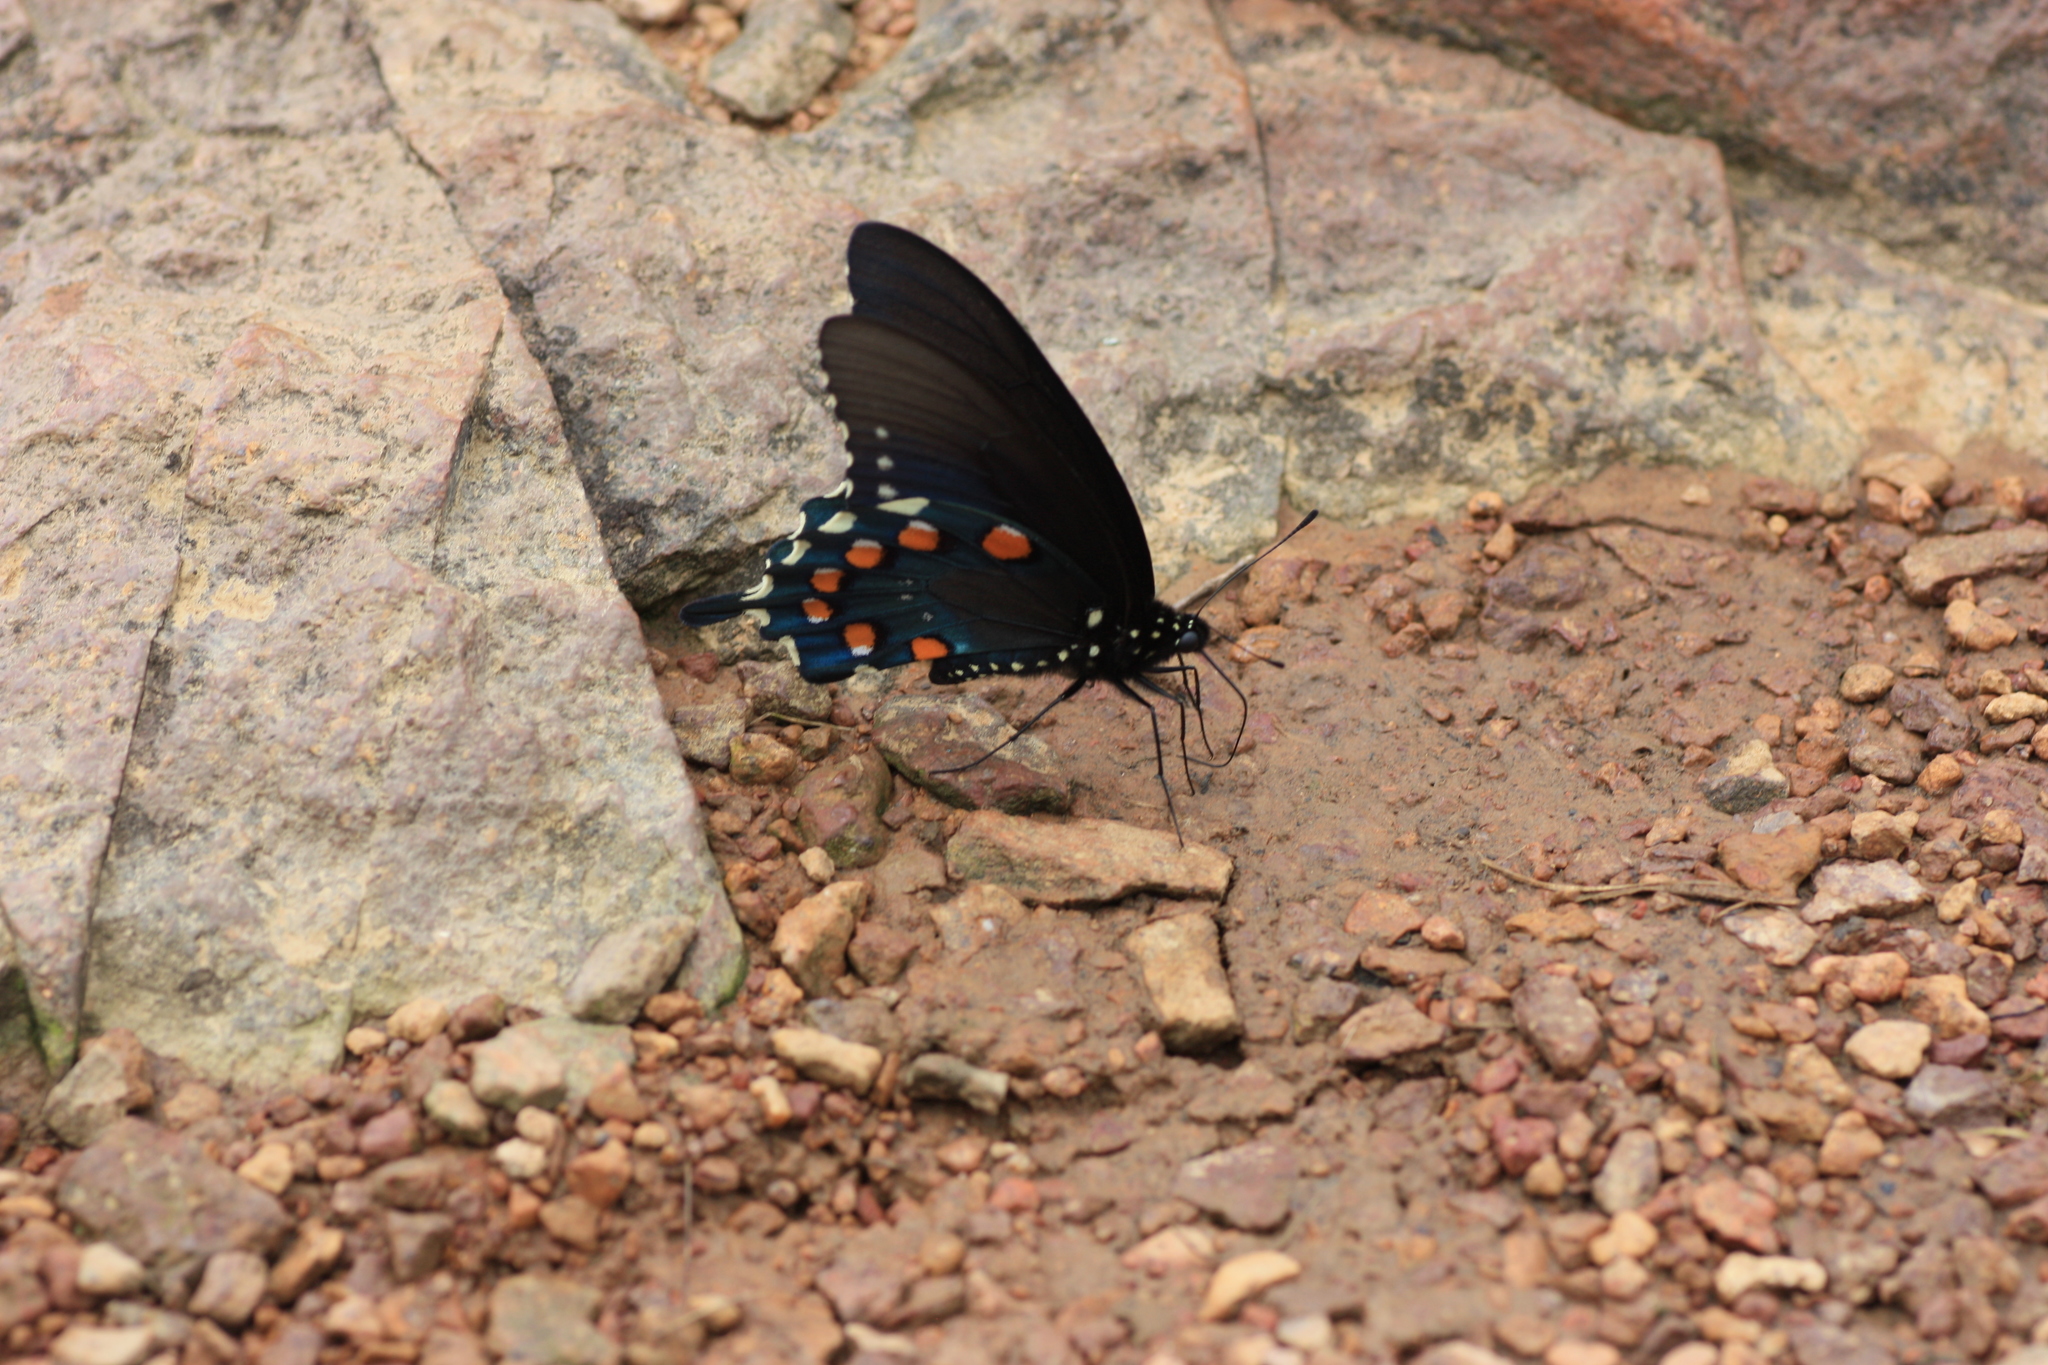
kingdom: Animalia
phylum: Arthropoda
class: Insecta
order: Lepidoptera
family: Papilionidae
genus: Battus
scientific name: Battus philenor
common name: Pipevine swallowtail
